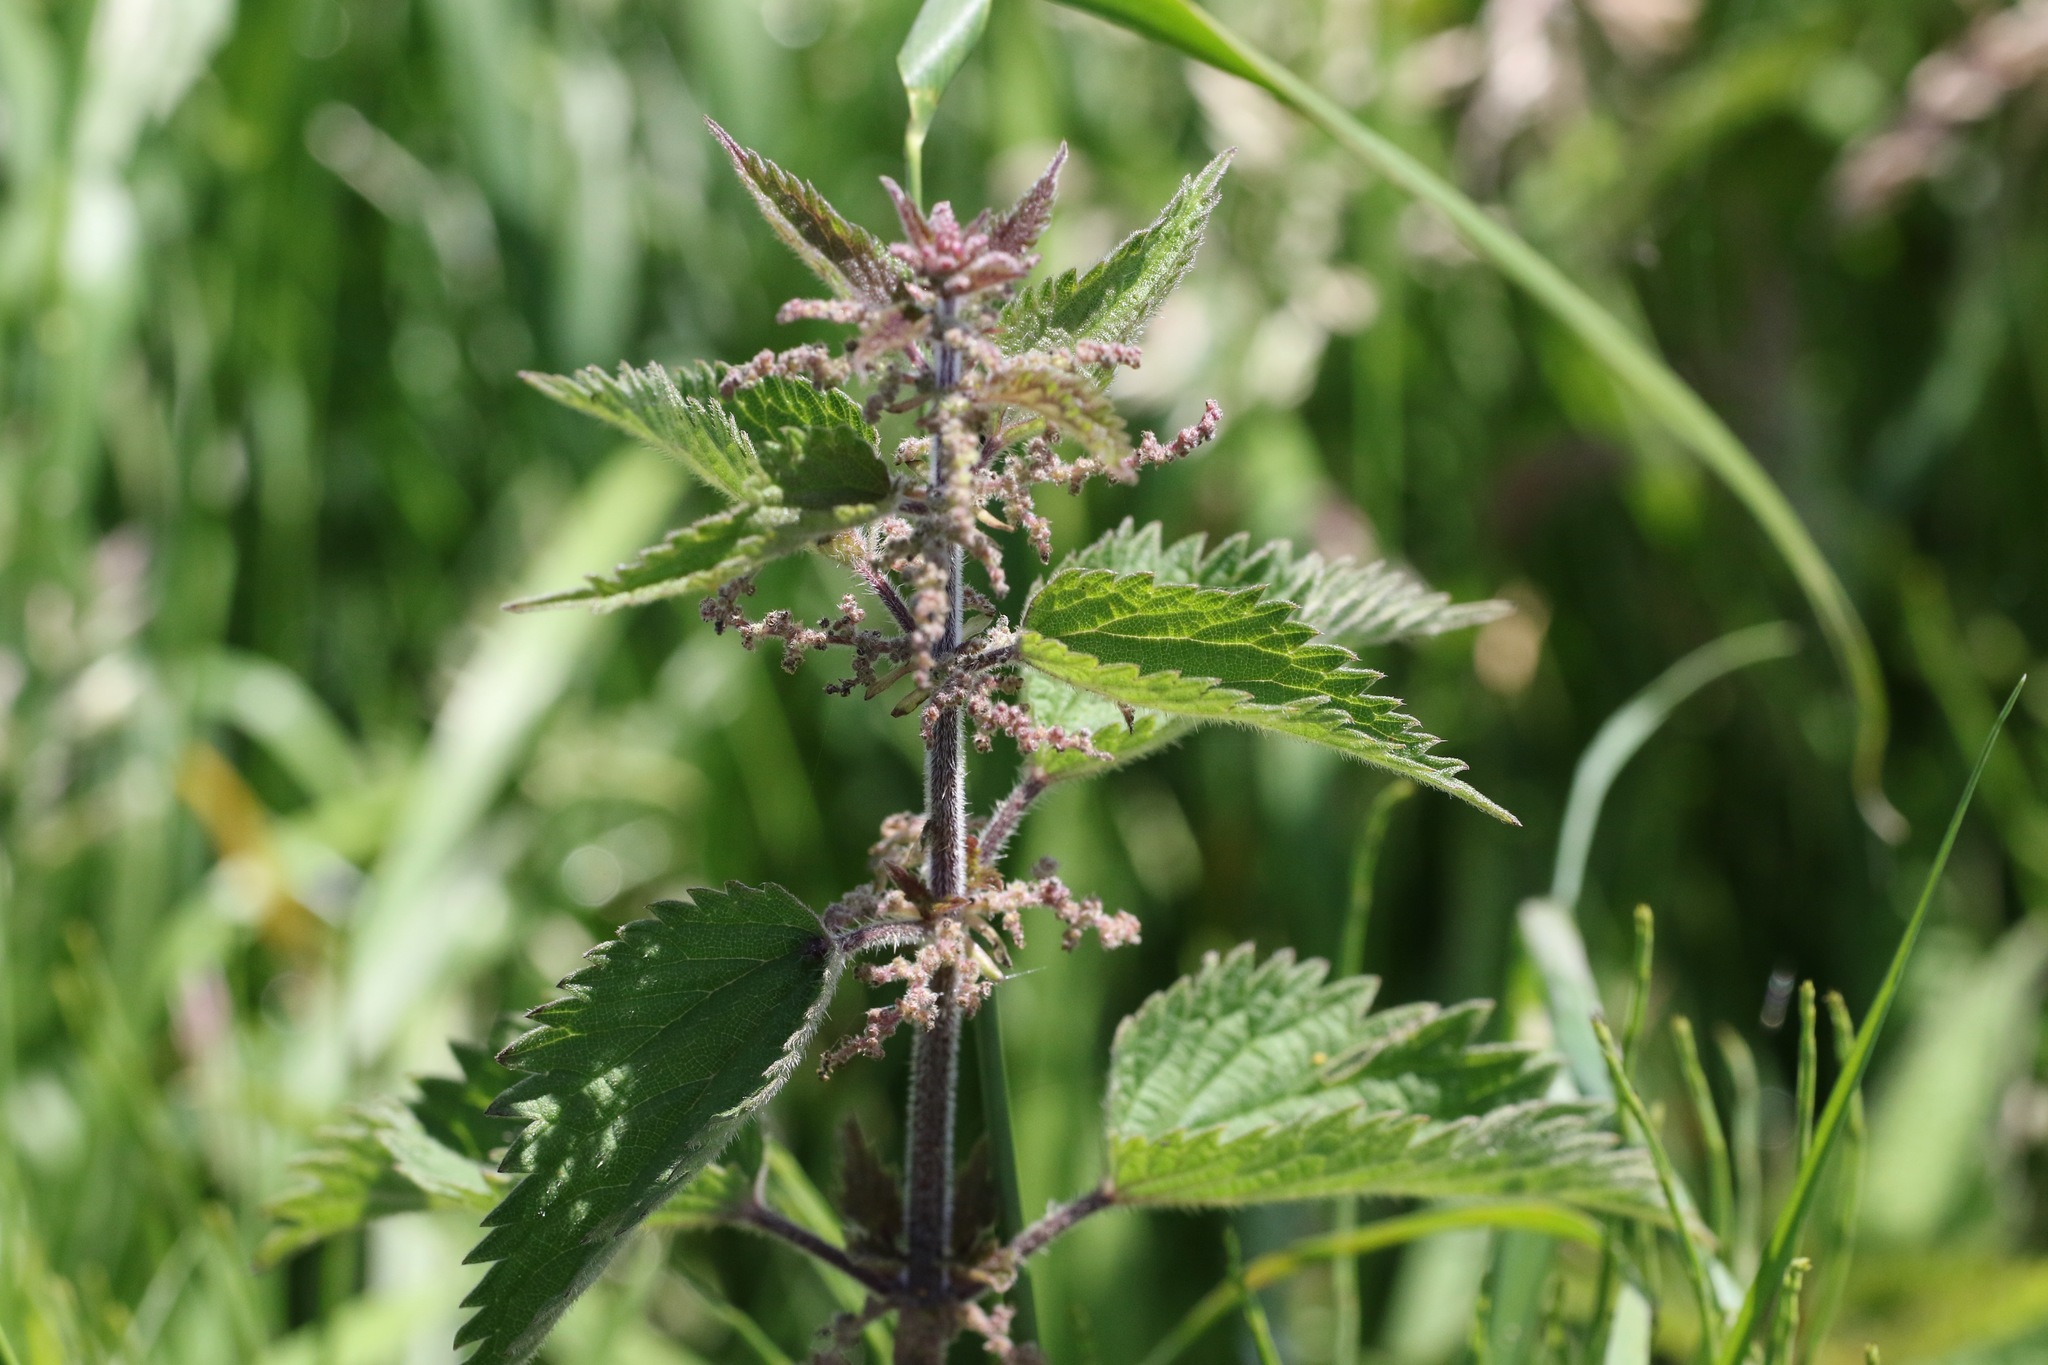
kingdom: Plantae
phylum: Tracheophyta
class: Magnoliopsida
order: Rosales
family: Urticaceae
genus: Urtica
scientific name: Urtica dioica
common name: Common nettle
